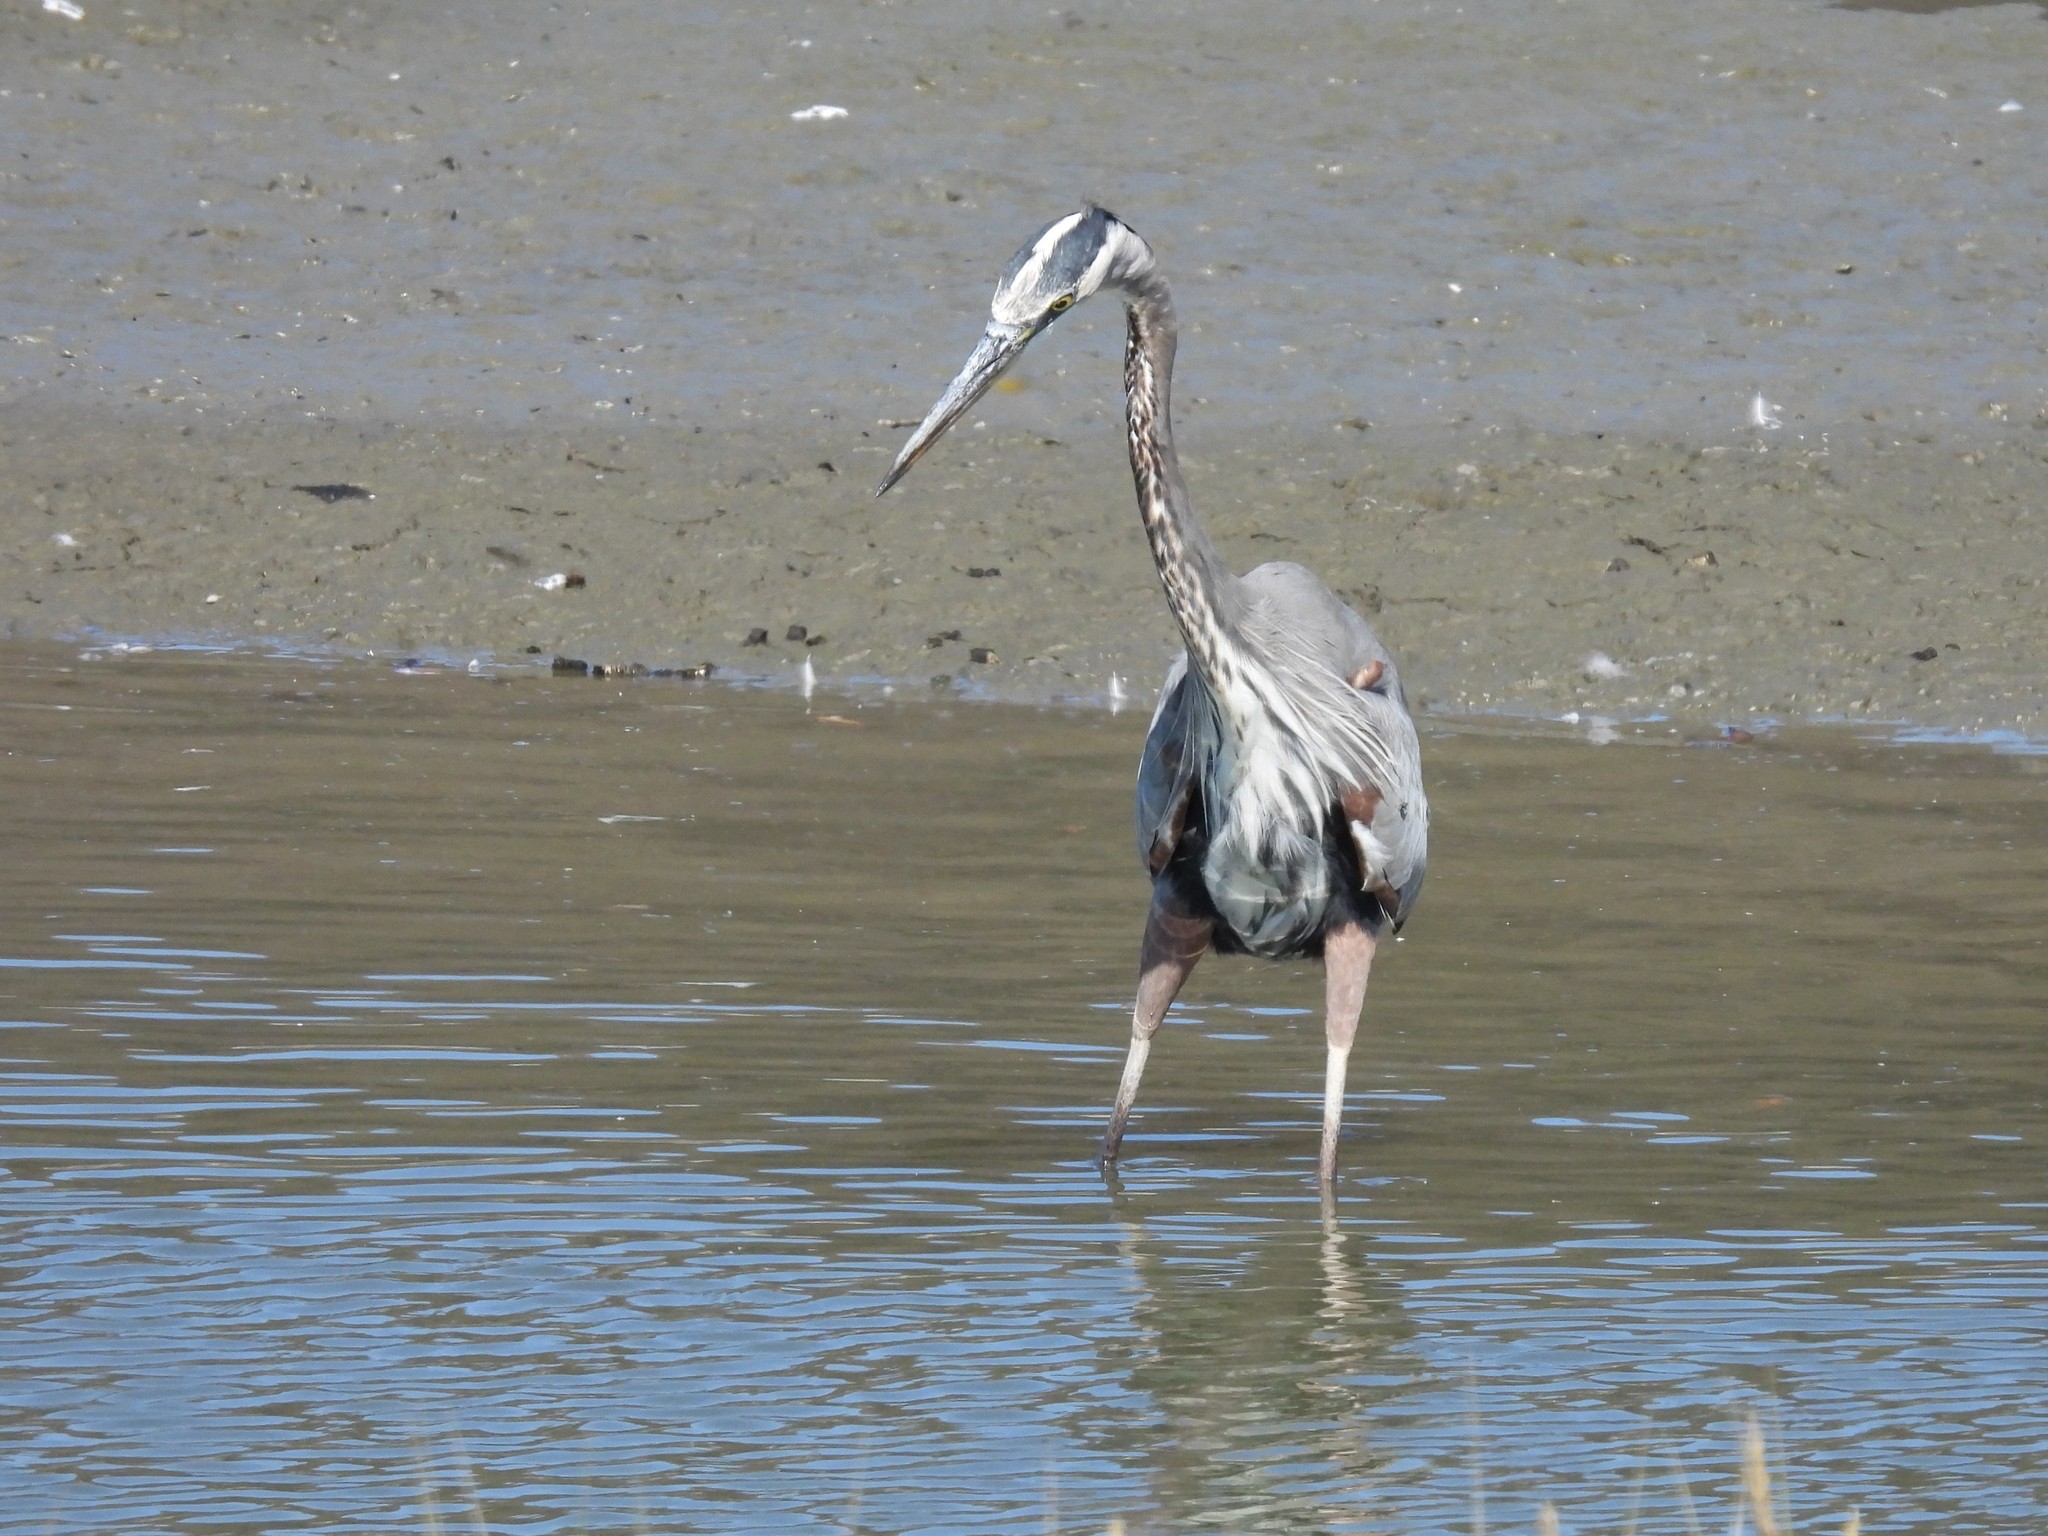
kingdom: Animalia
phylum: Chordata
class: Aves
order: Pelecaniformes
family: Ardeidae
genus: Ardea
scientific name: Ardea herodias
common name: Great blue heron
